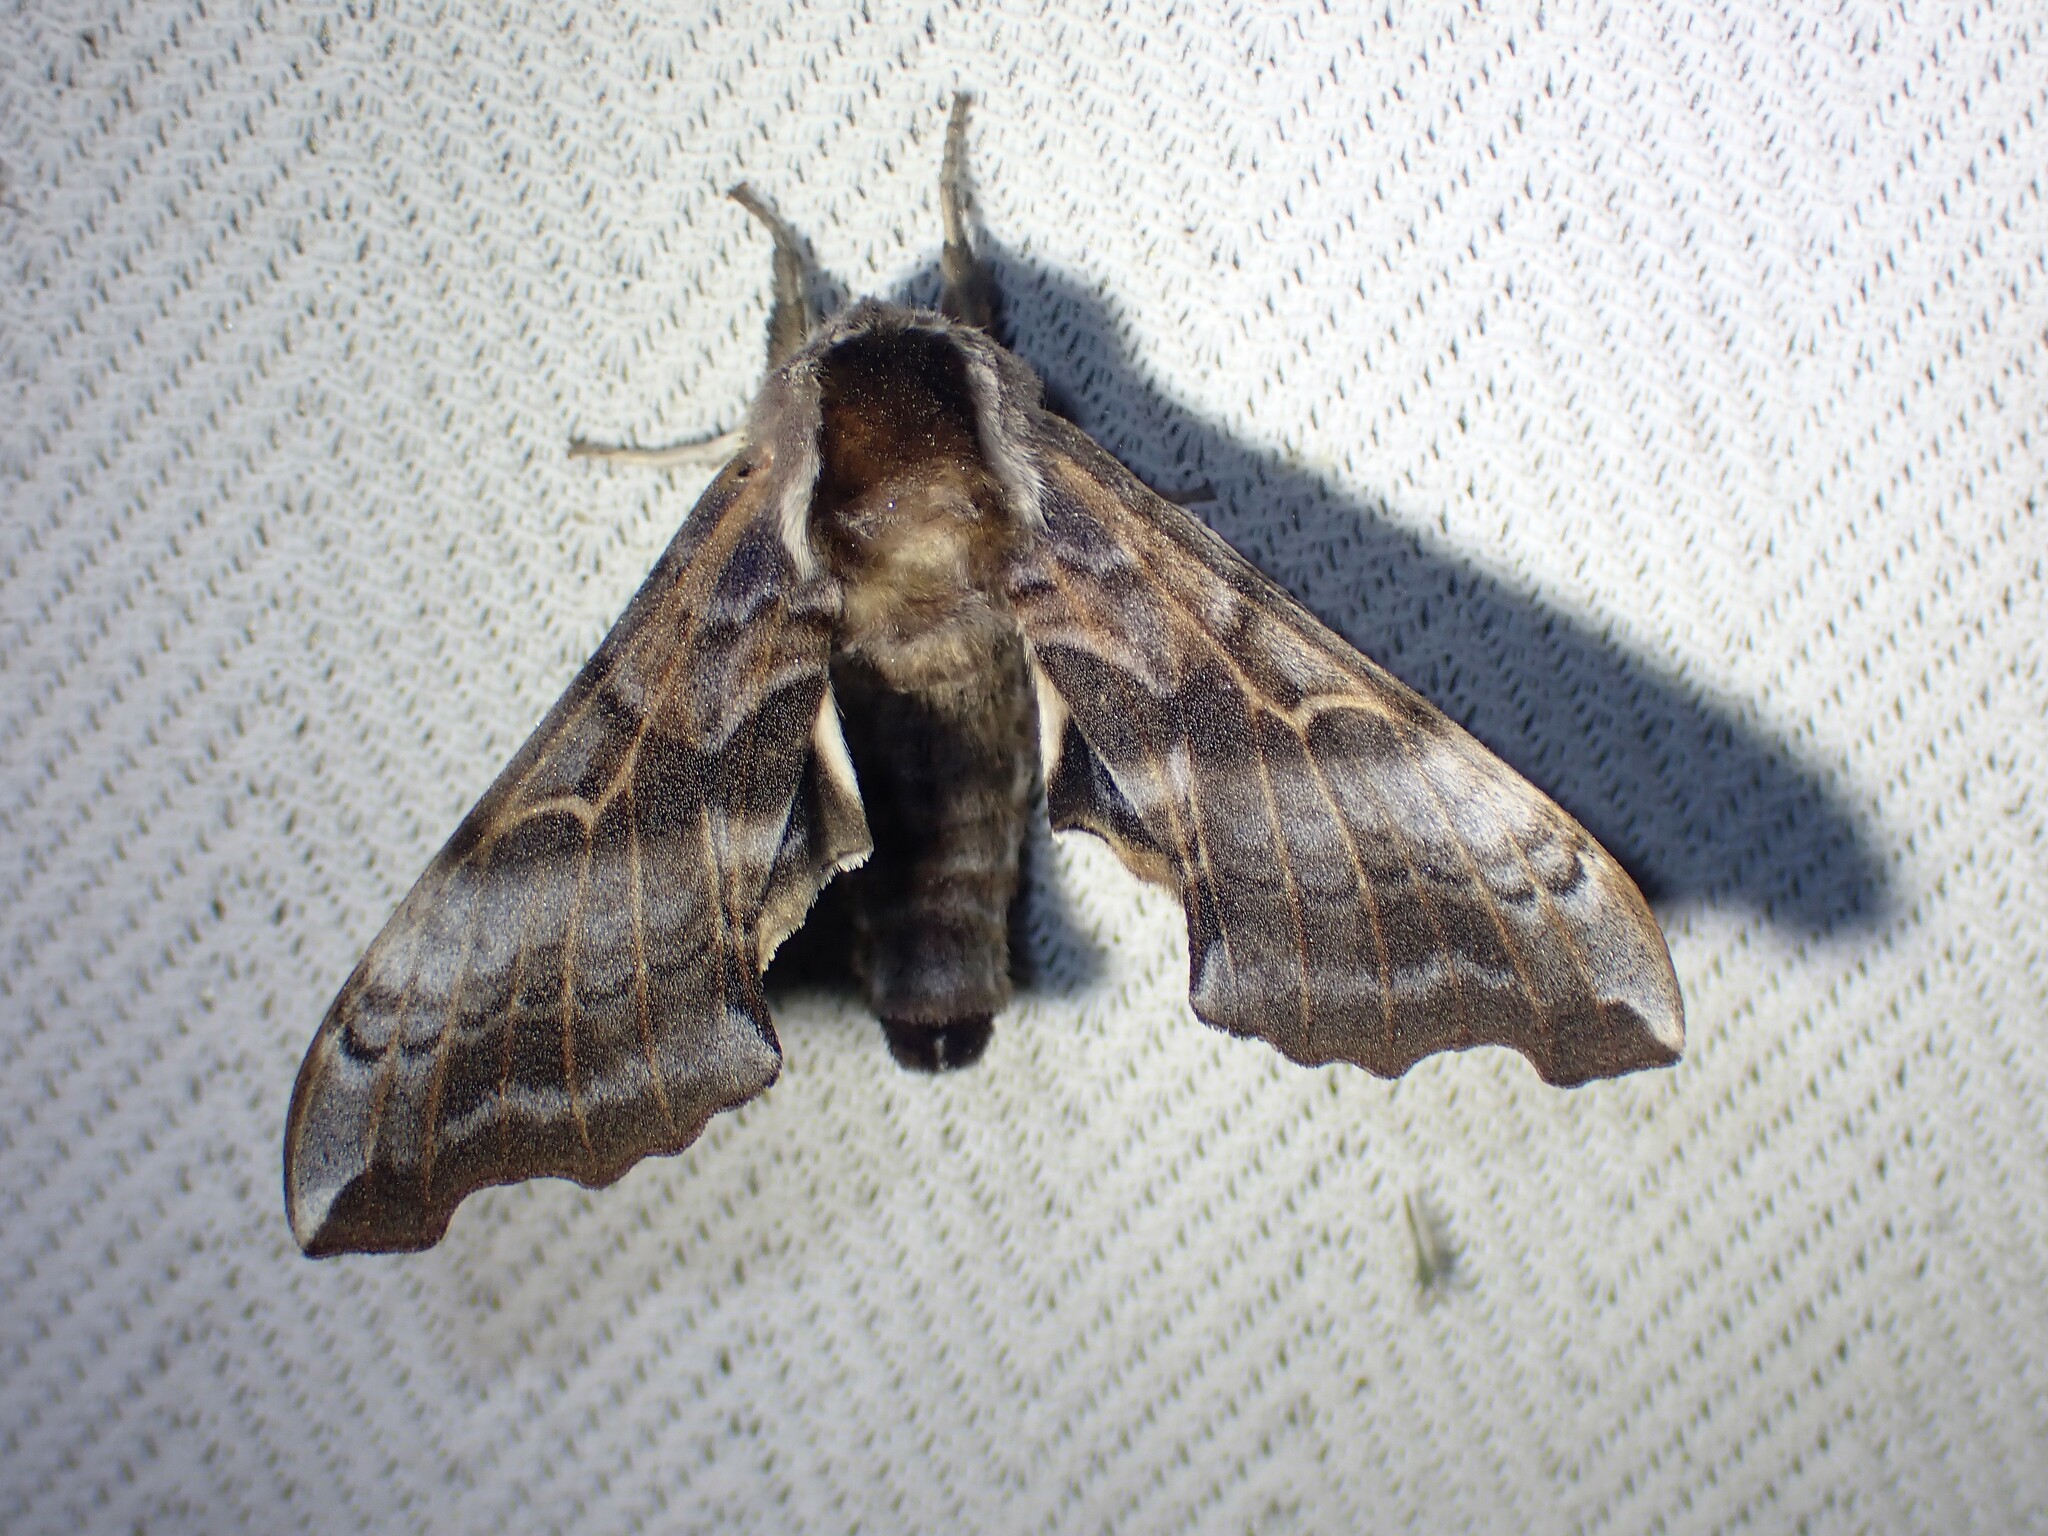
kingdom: Animalia
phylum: Arthropoda
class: Insecta
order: Lepidoptera
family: Sphingidae
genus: Smerinthus
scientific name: Smerinthus cerisyi
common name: Cerisy's sphinx moth
